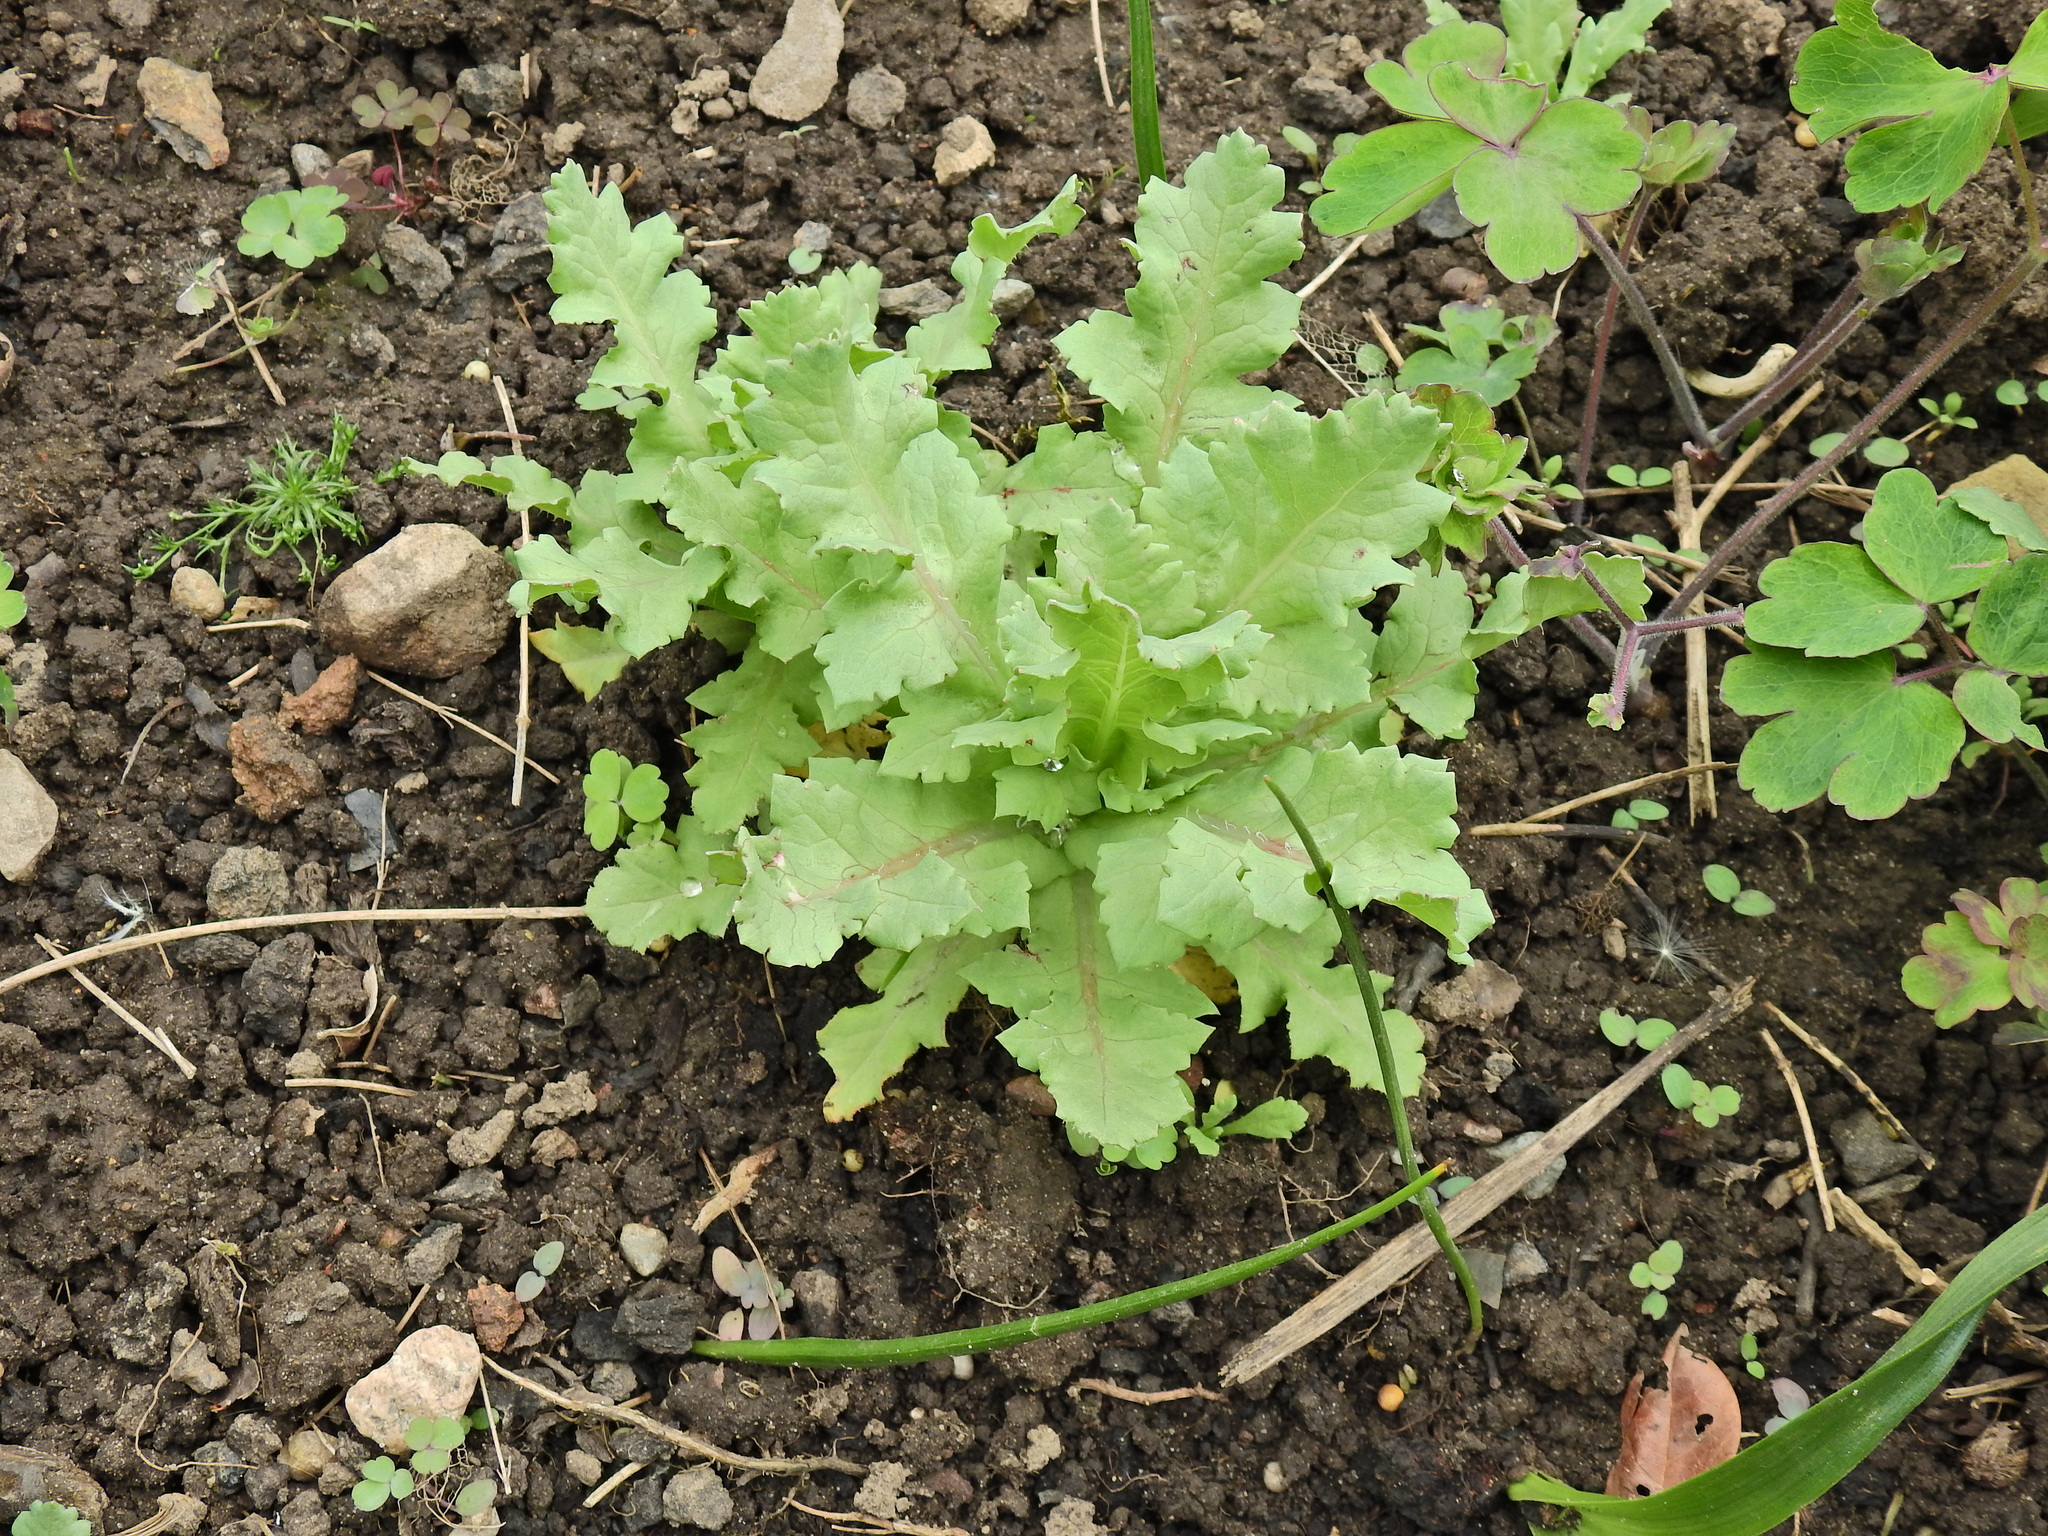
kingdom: Plantae
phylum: Tracheophyta
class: Magnoliopsida
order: Ranunculales
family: Papaveraceae
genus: Papaver
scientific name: Papaver somniferum
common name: Opium poppy
